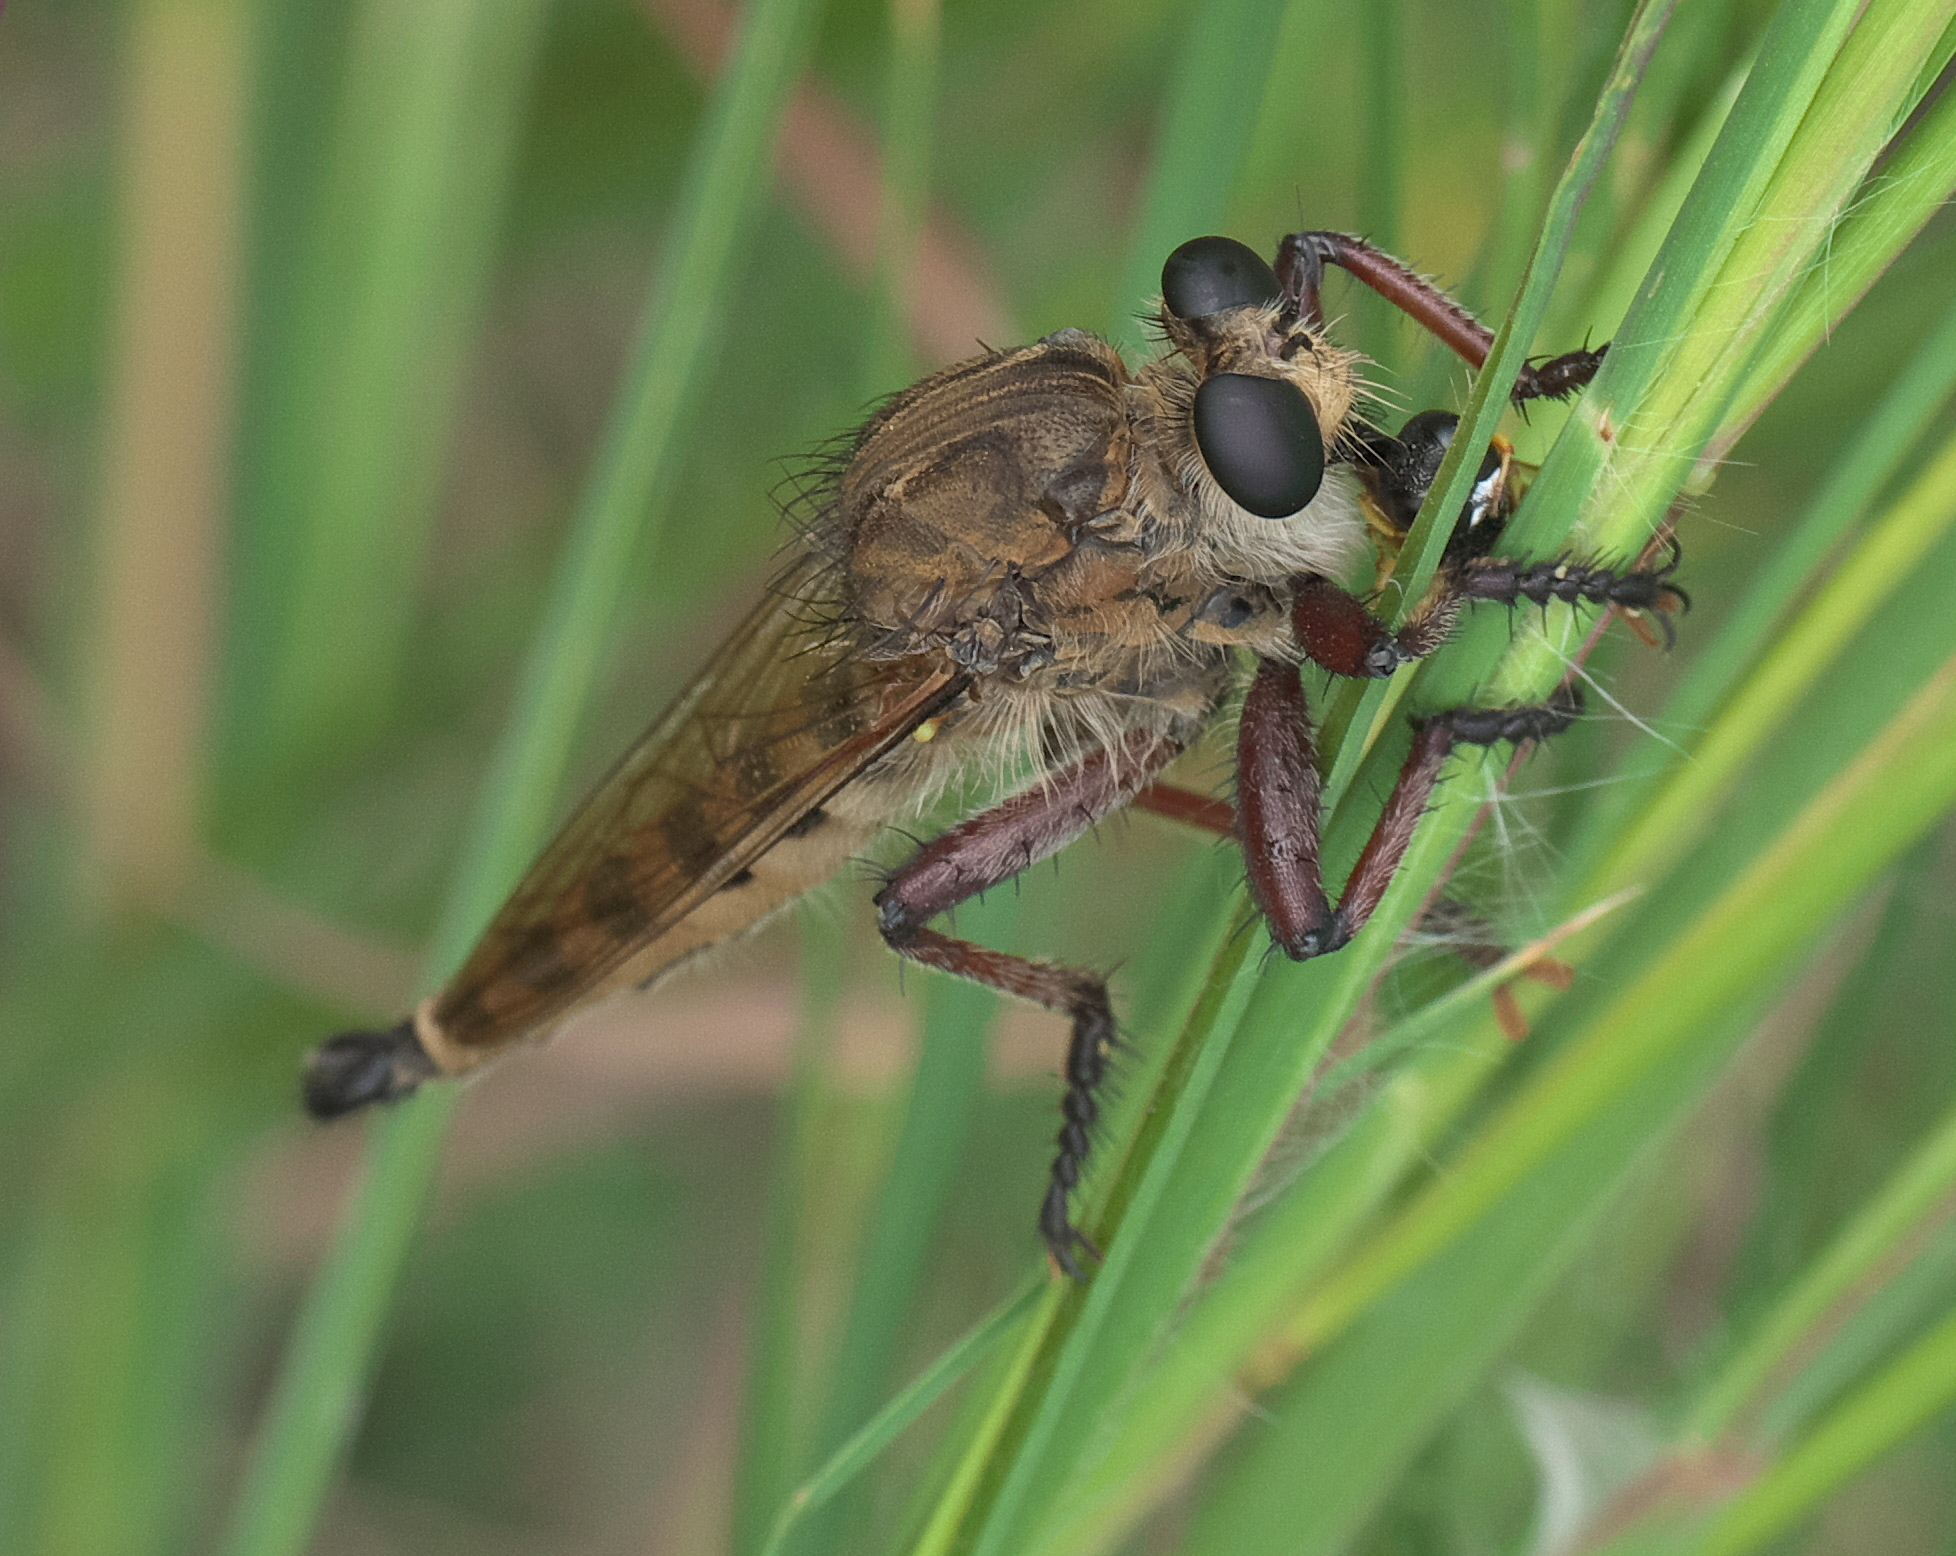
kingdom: Animalia
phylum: Arthropoda
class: Insecta
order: Diptera
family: Asilidae
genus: Promachus
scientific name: Promachus hinei
